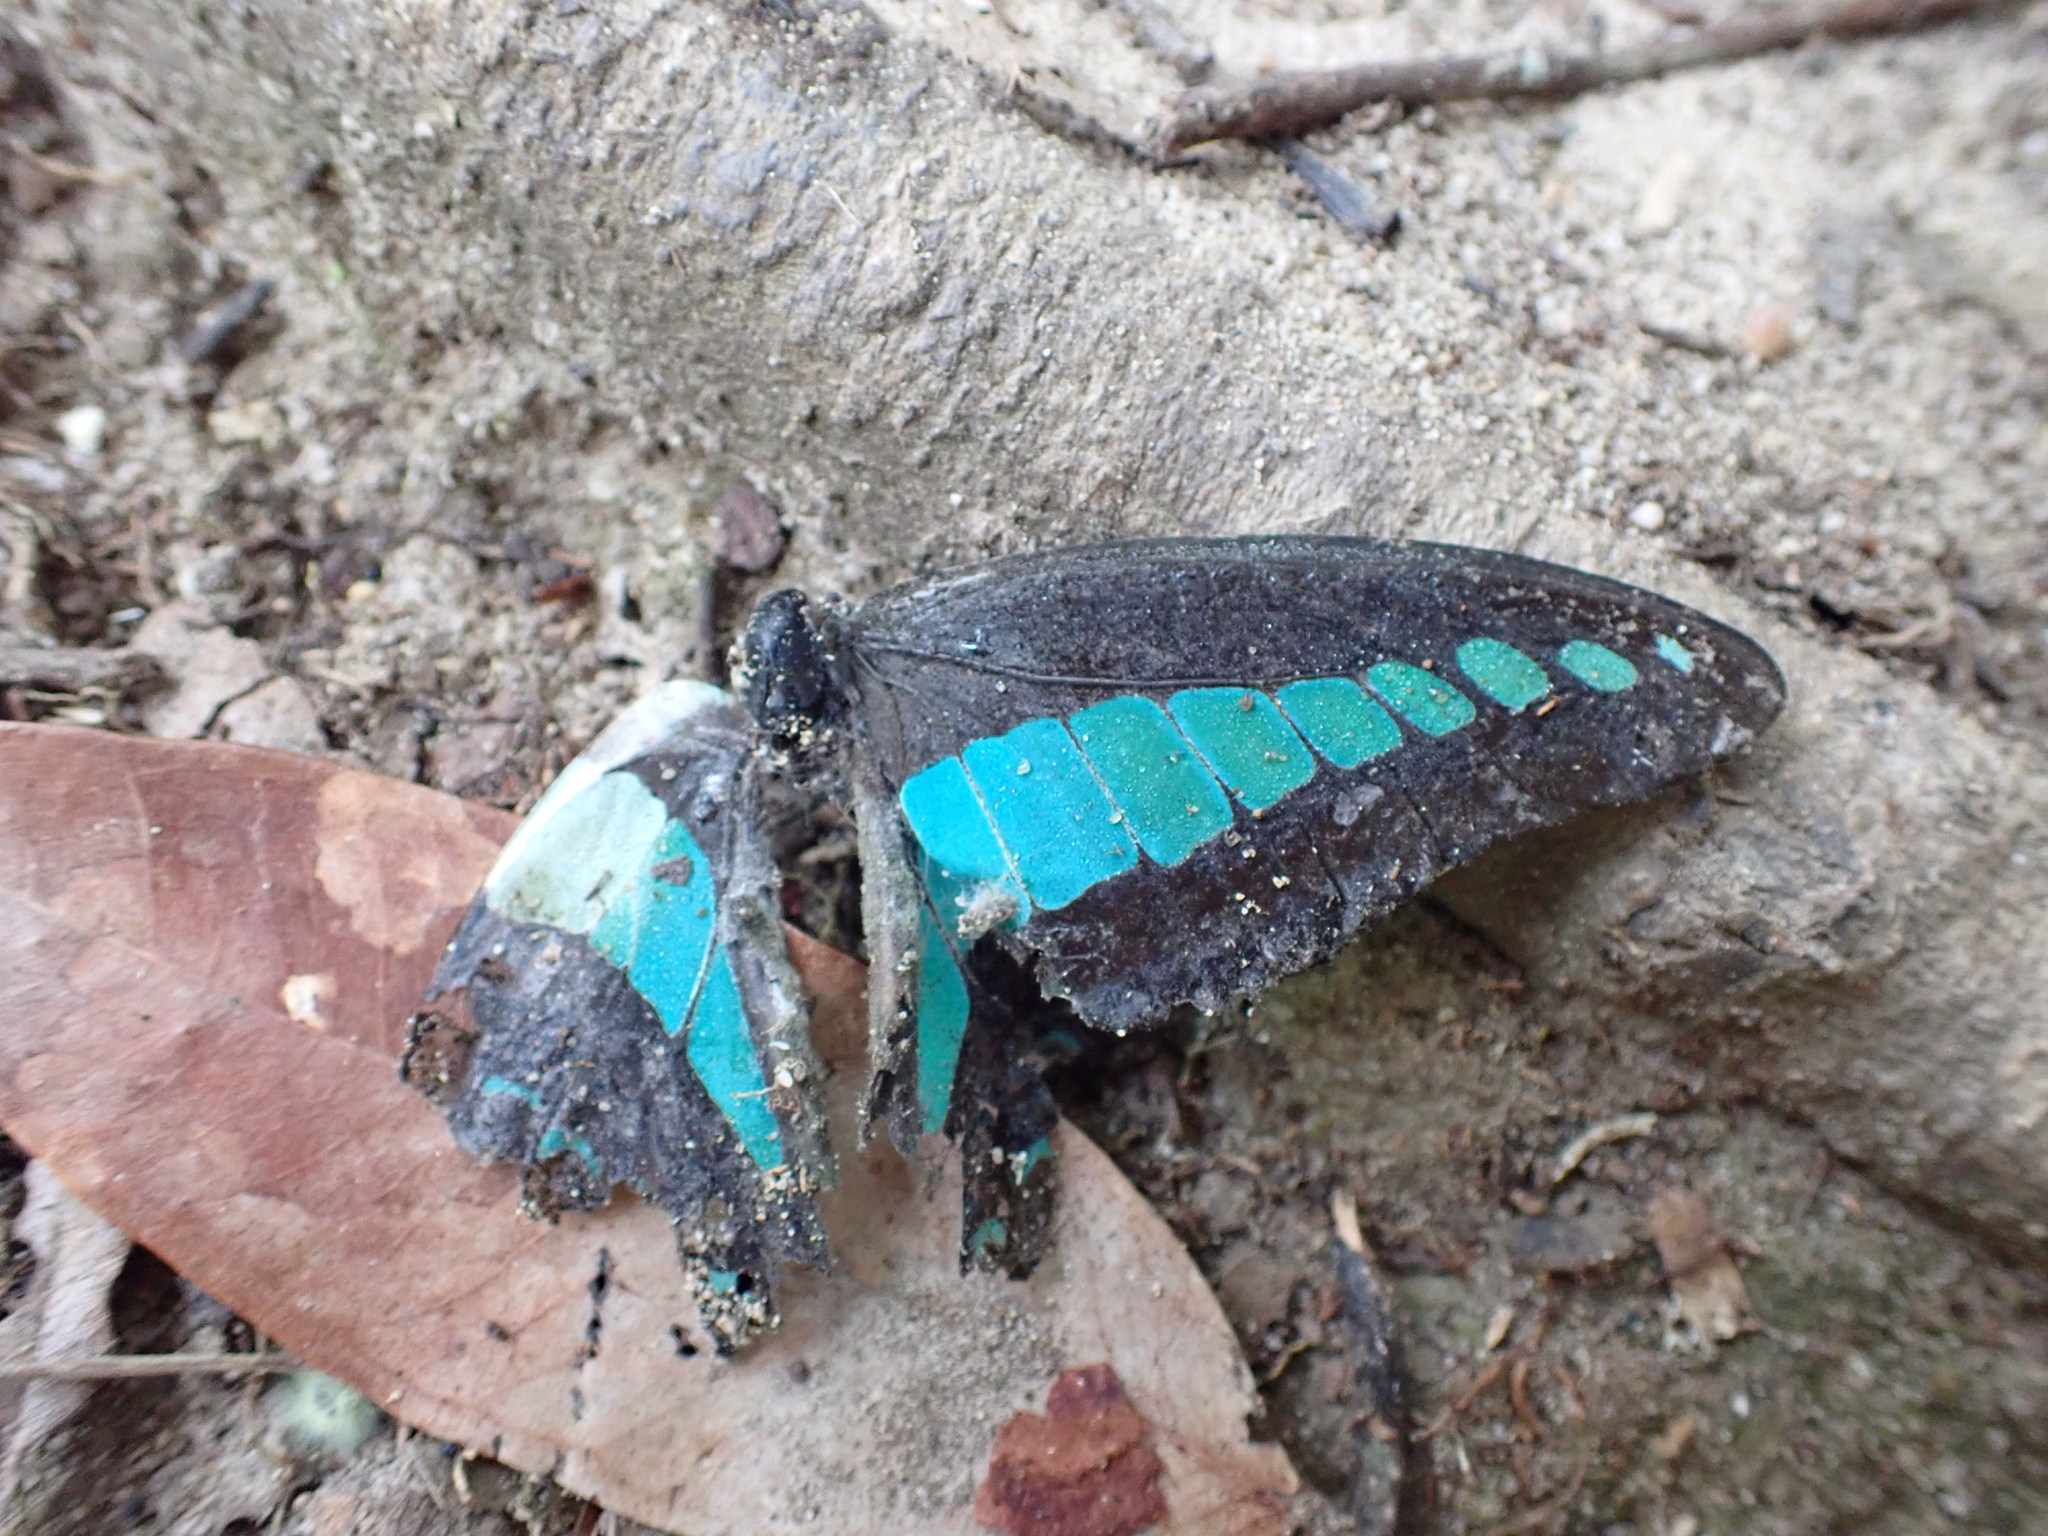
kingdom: Fungi
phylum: Ascomycota
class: Sordariomycetes
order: Microascales
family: Microascaceae
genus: Graphium
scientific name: Graphium sarpedon
